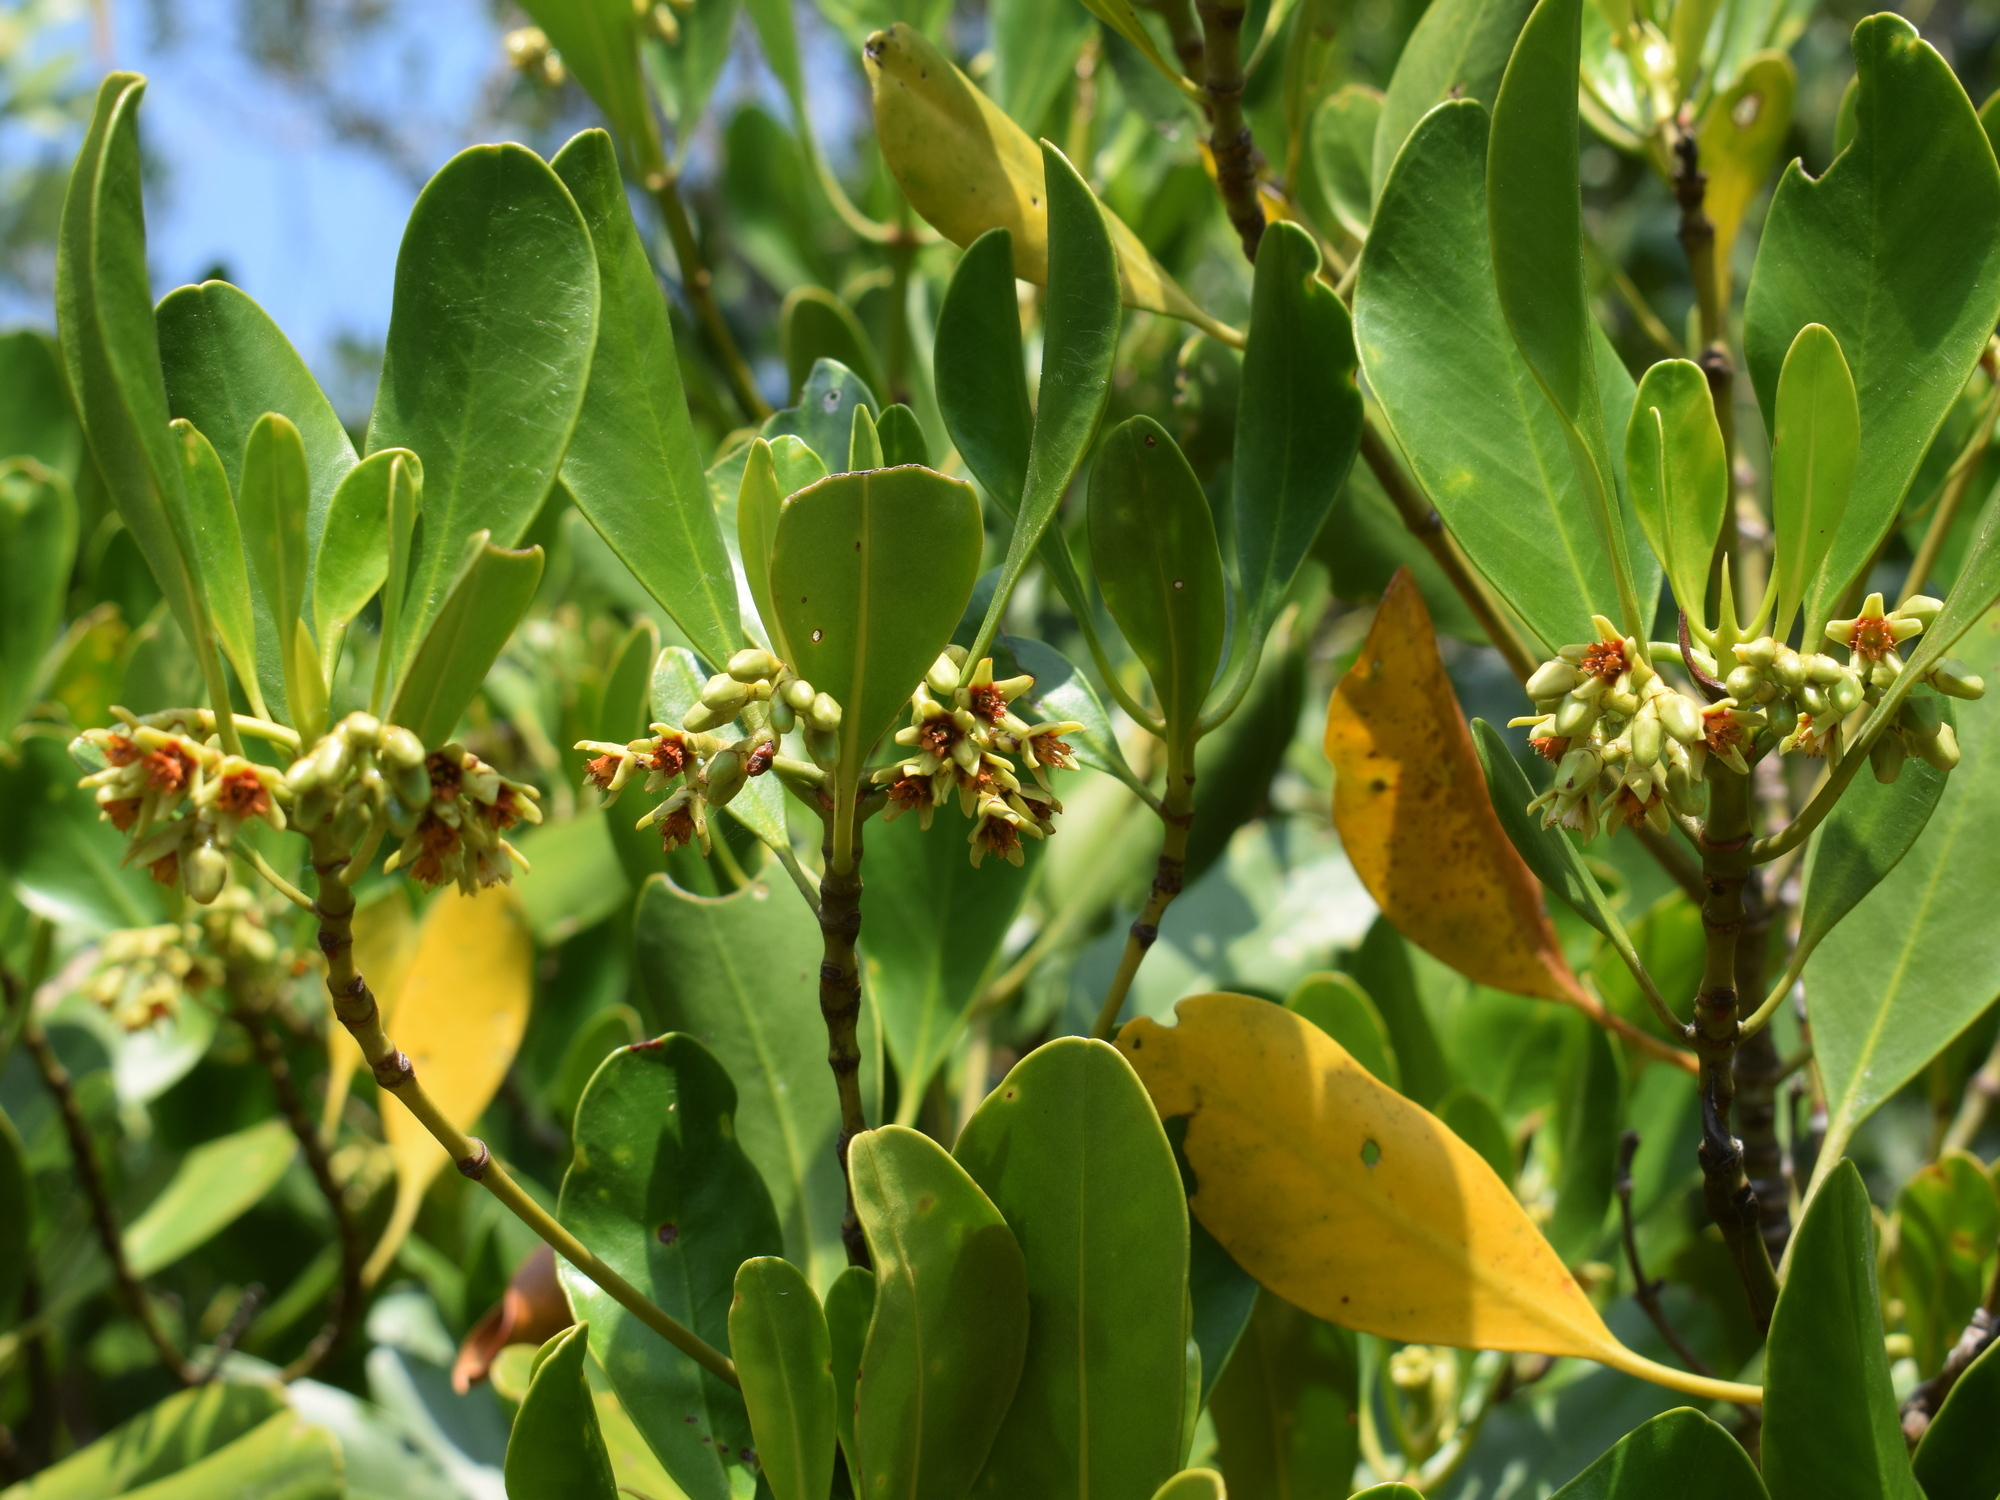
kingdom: Plantae
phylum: Tracheophyta
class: Magnoliopsida
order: Malpighiales
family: Rhizophoraceae
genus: Ceriops
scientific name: Ceriops tagal
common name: Spurred mangrove
